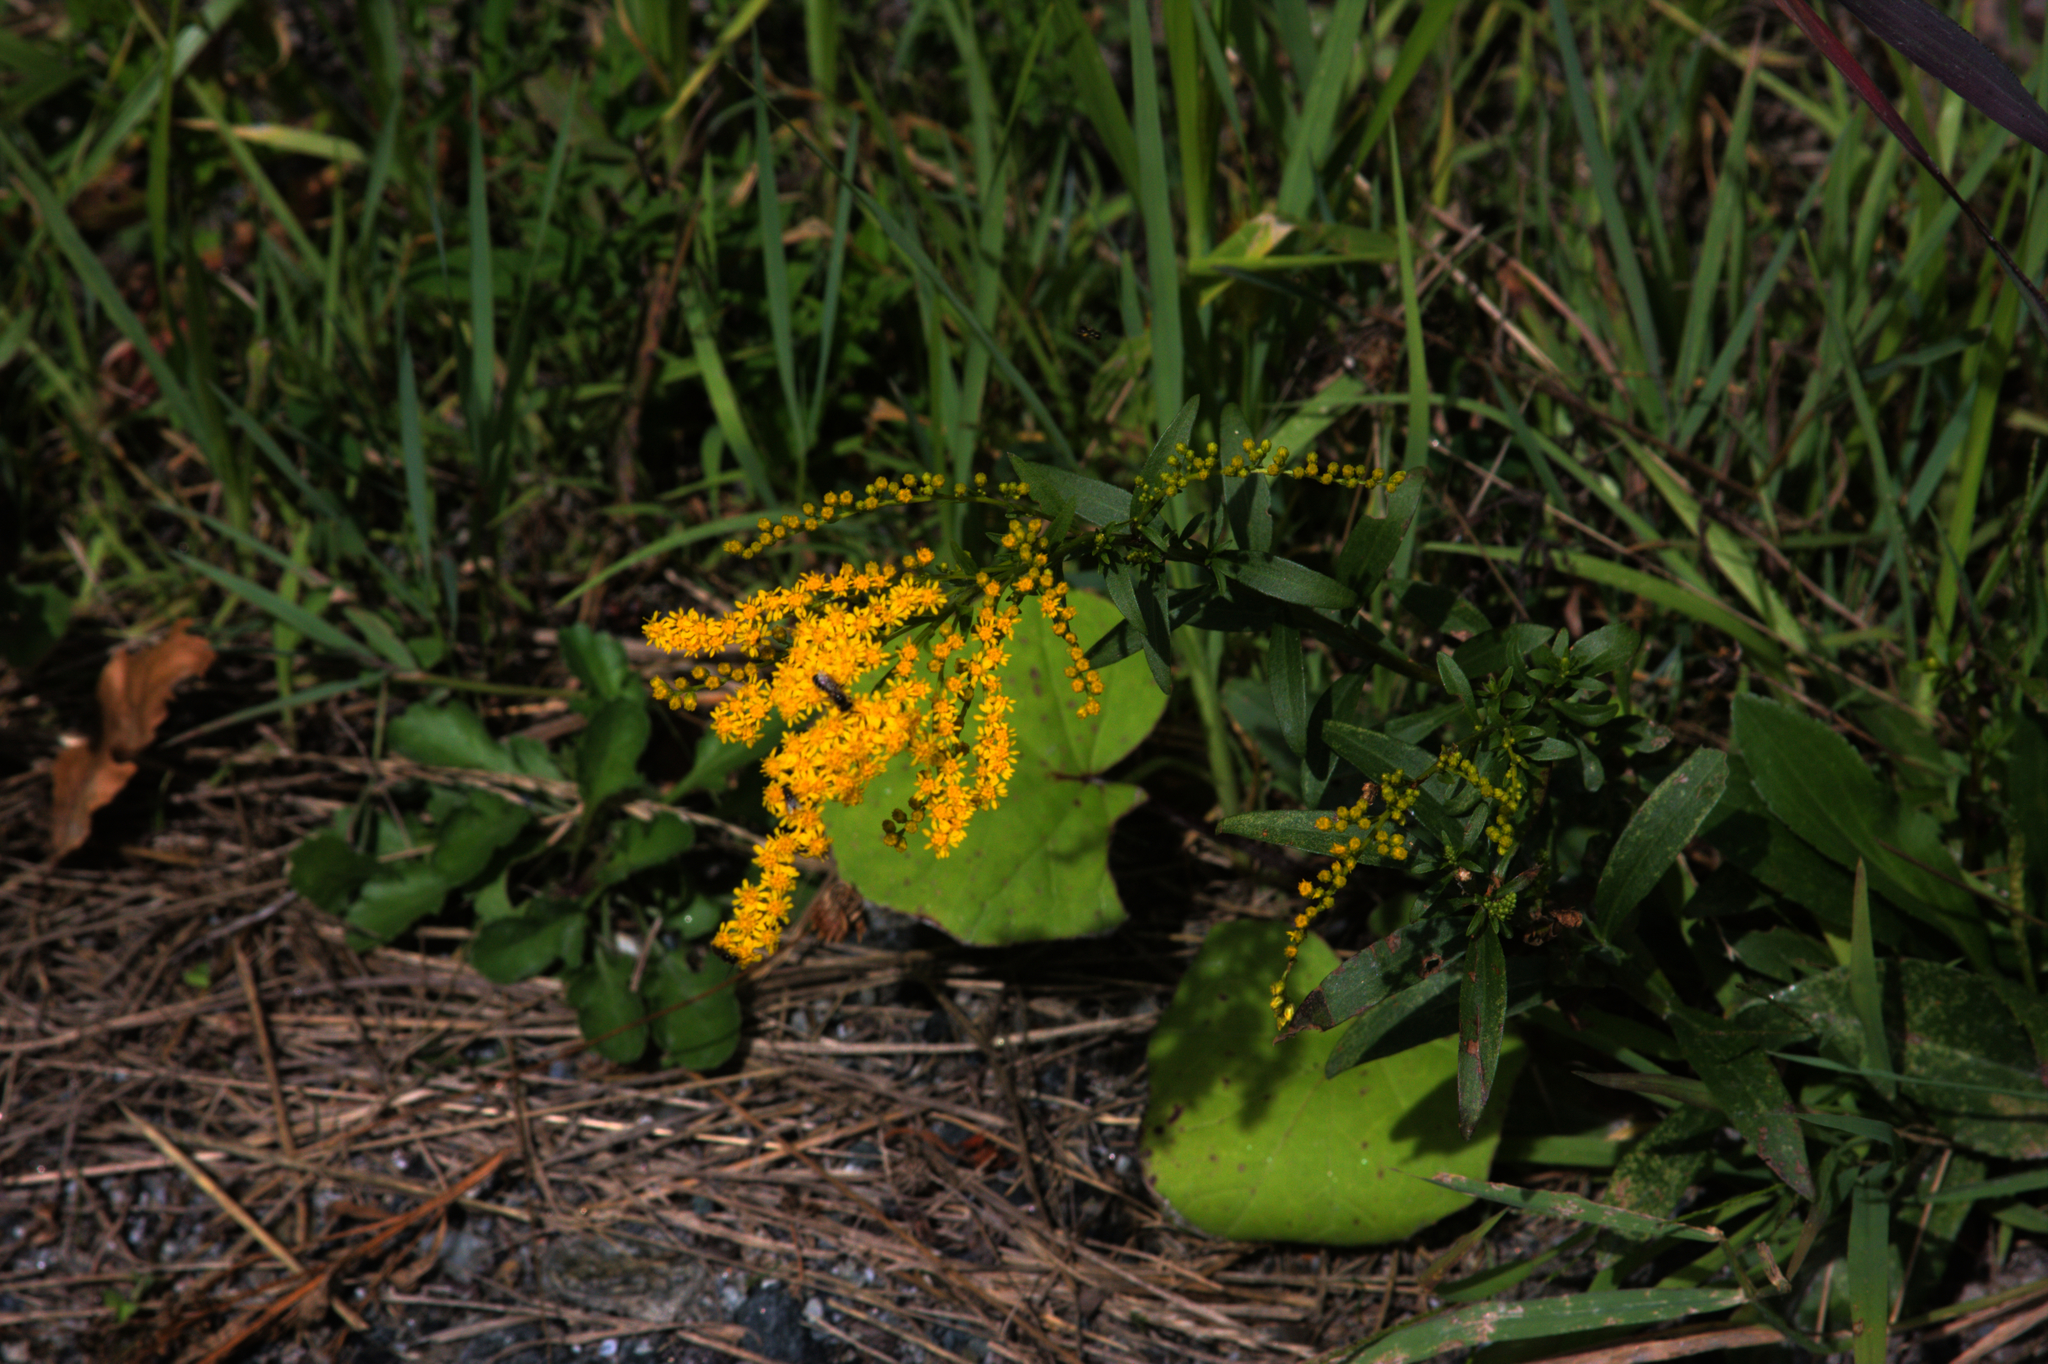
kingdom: Plantae
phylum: Tracheophyta
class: Magnoliopsida
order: Asterales
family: Asteraceae
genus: Solidago
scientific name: Solidago juncea
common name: Early goldenrod
